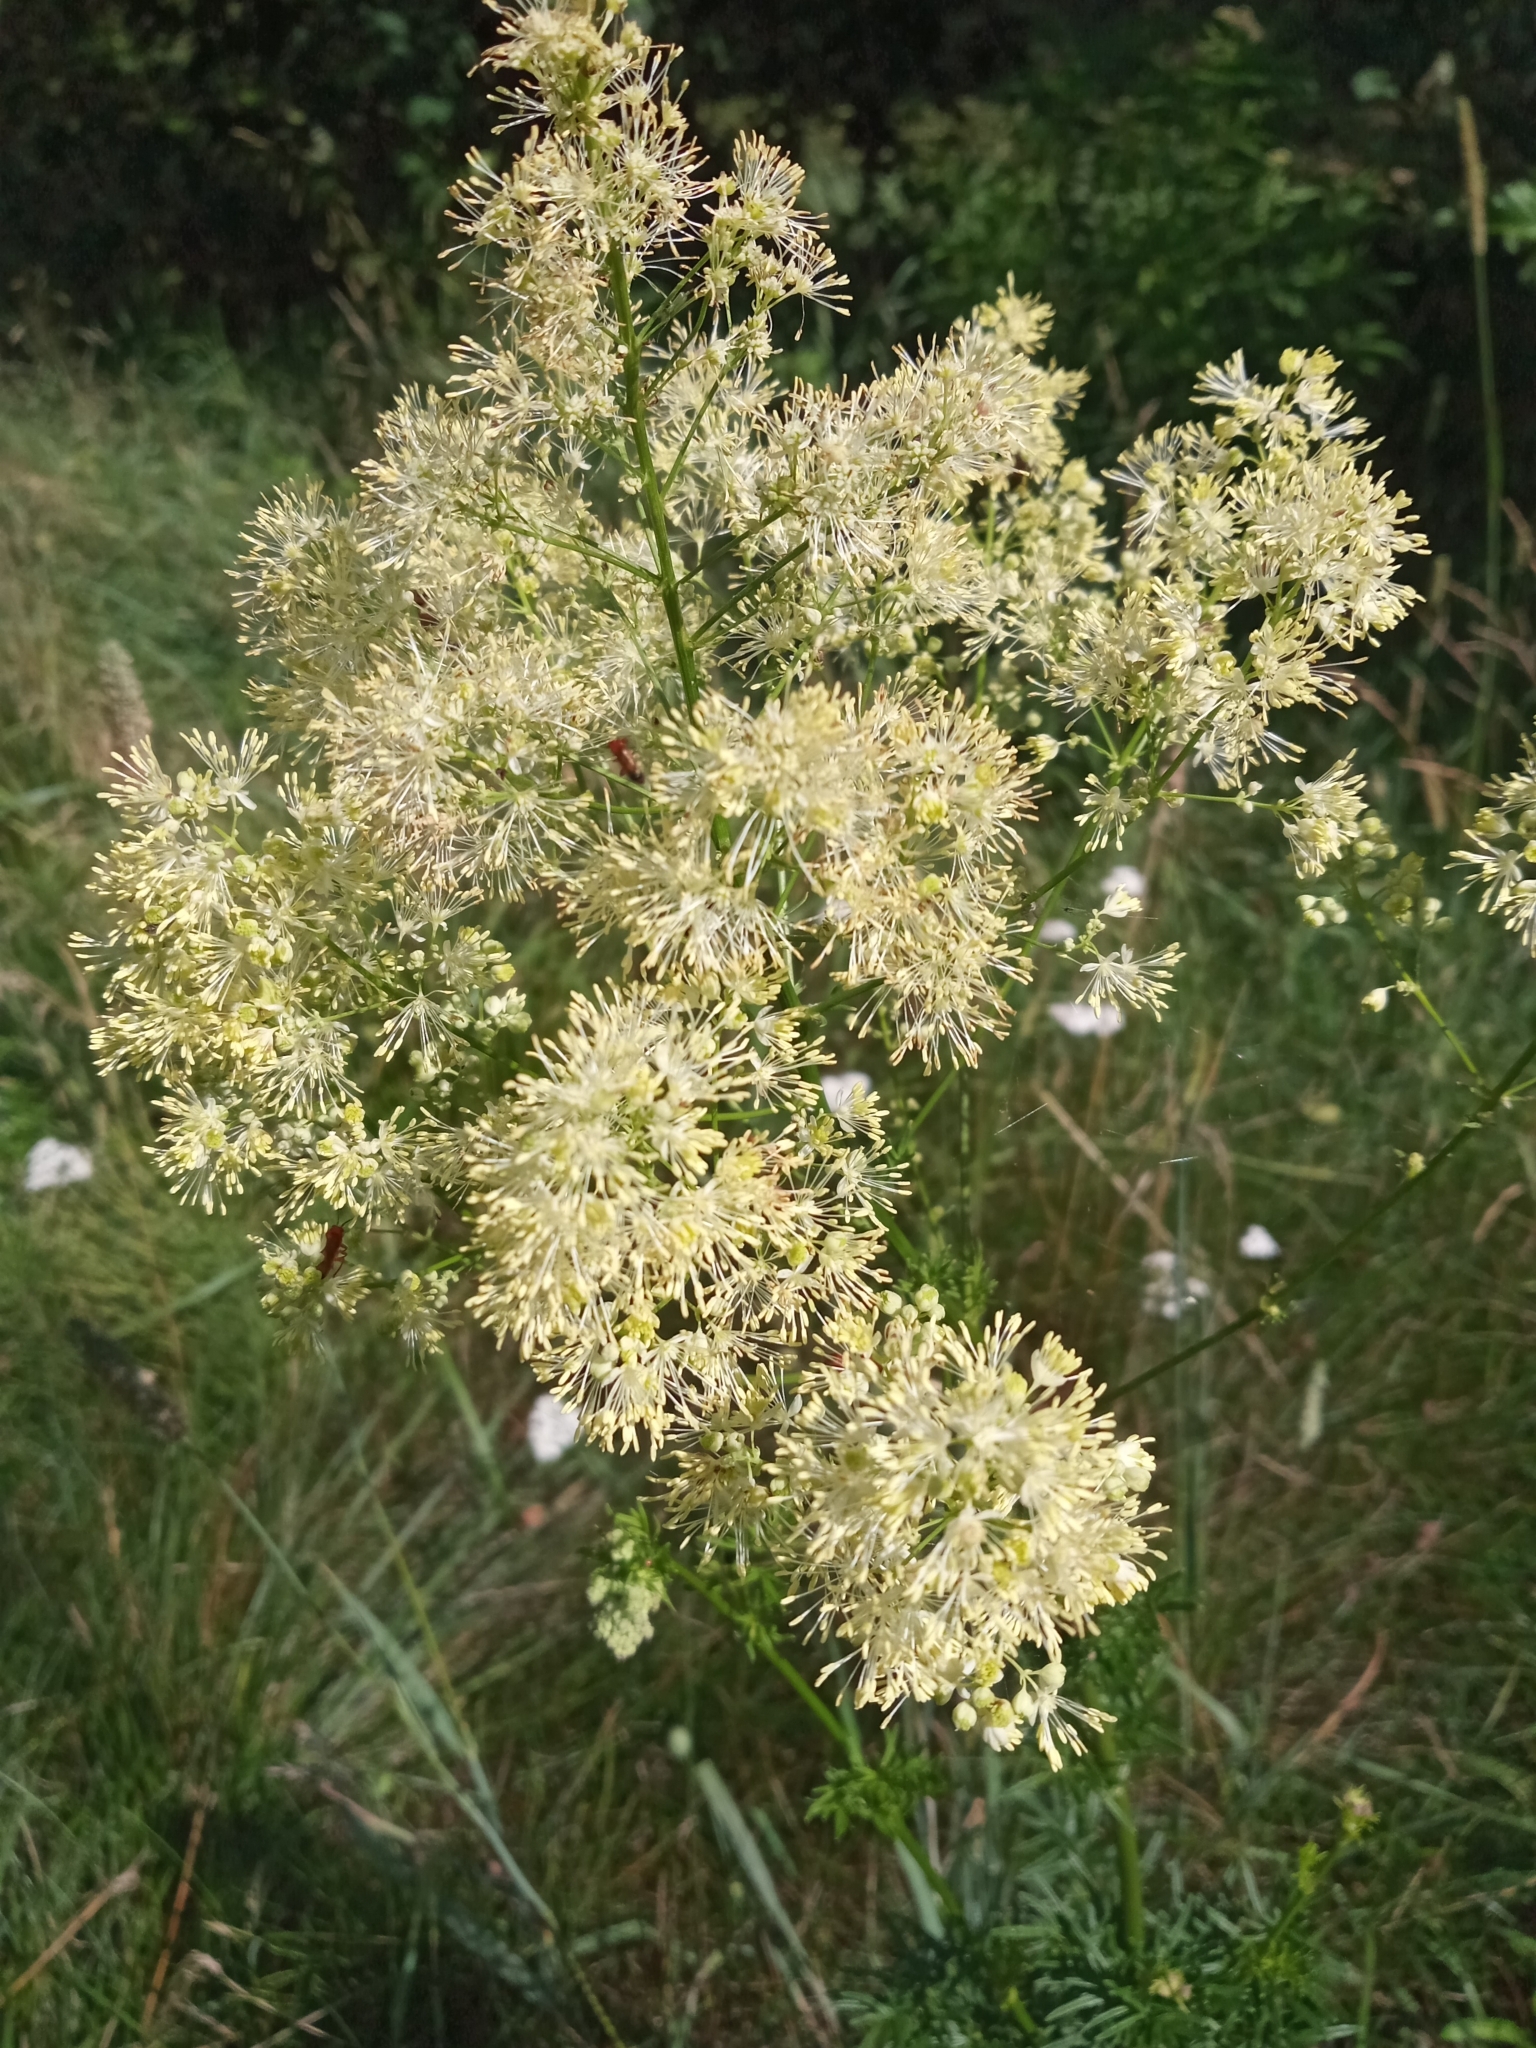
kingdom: Plantae
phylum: Tracheophyta
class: Magnoliopsida
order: Ranunculales
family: Ranunculaceae
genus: Thalictrum
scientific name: Thalictrum lucidum
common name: Shining meadow-rue
